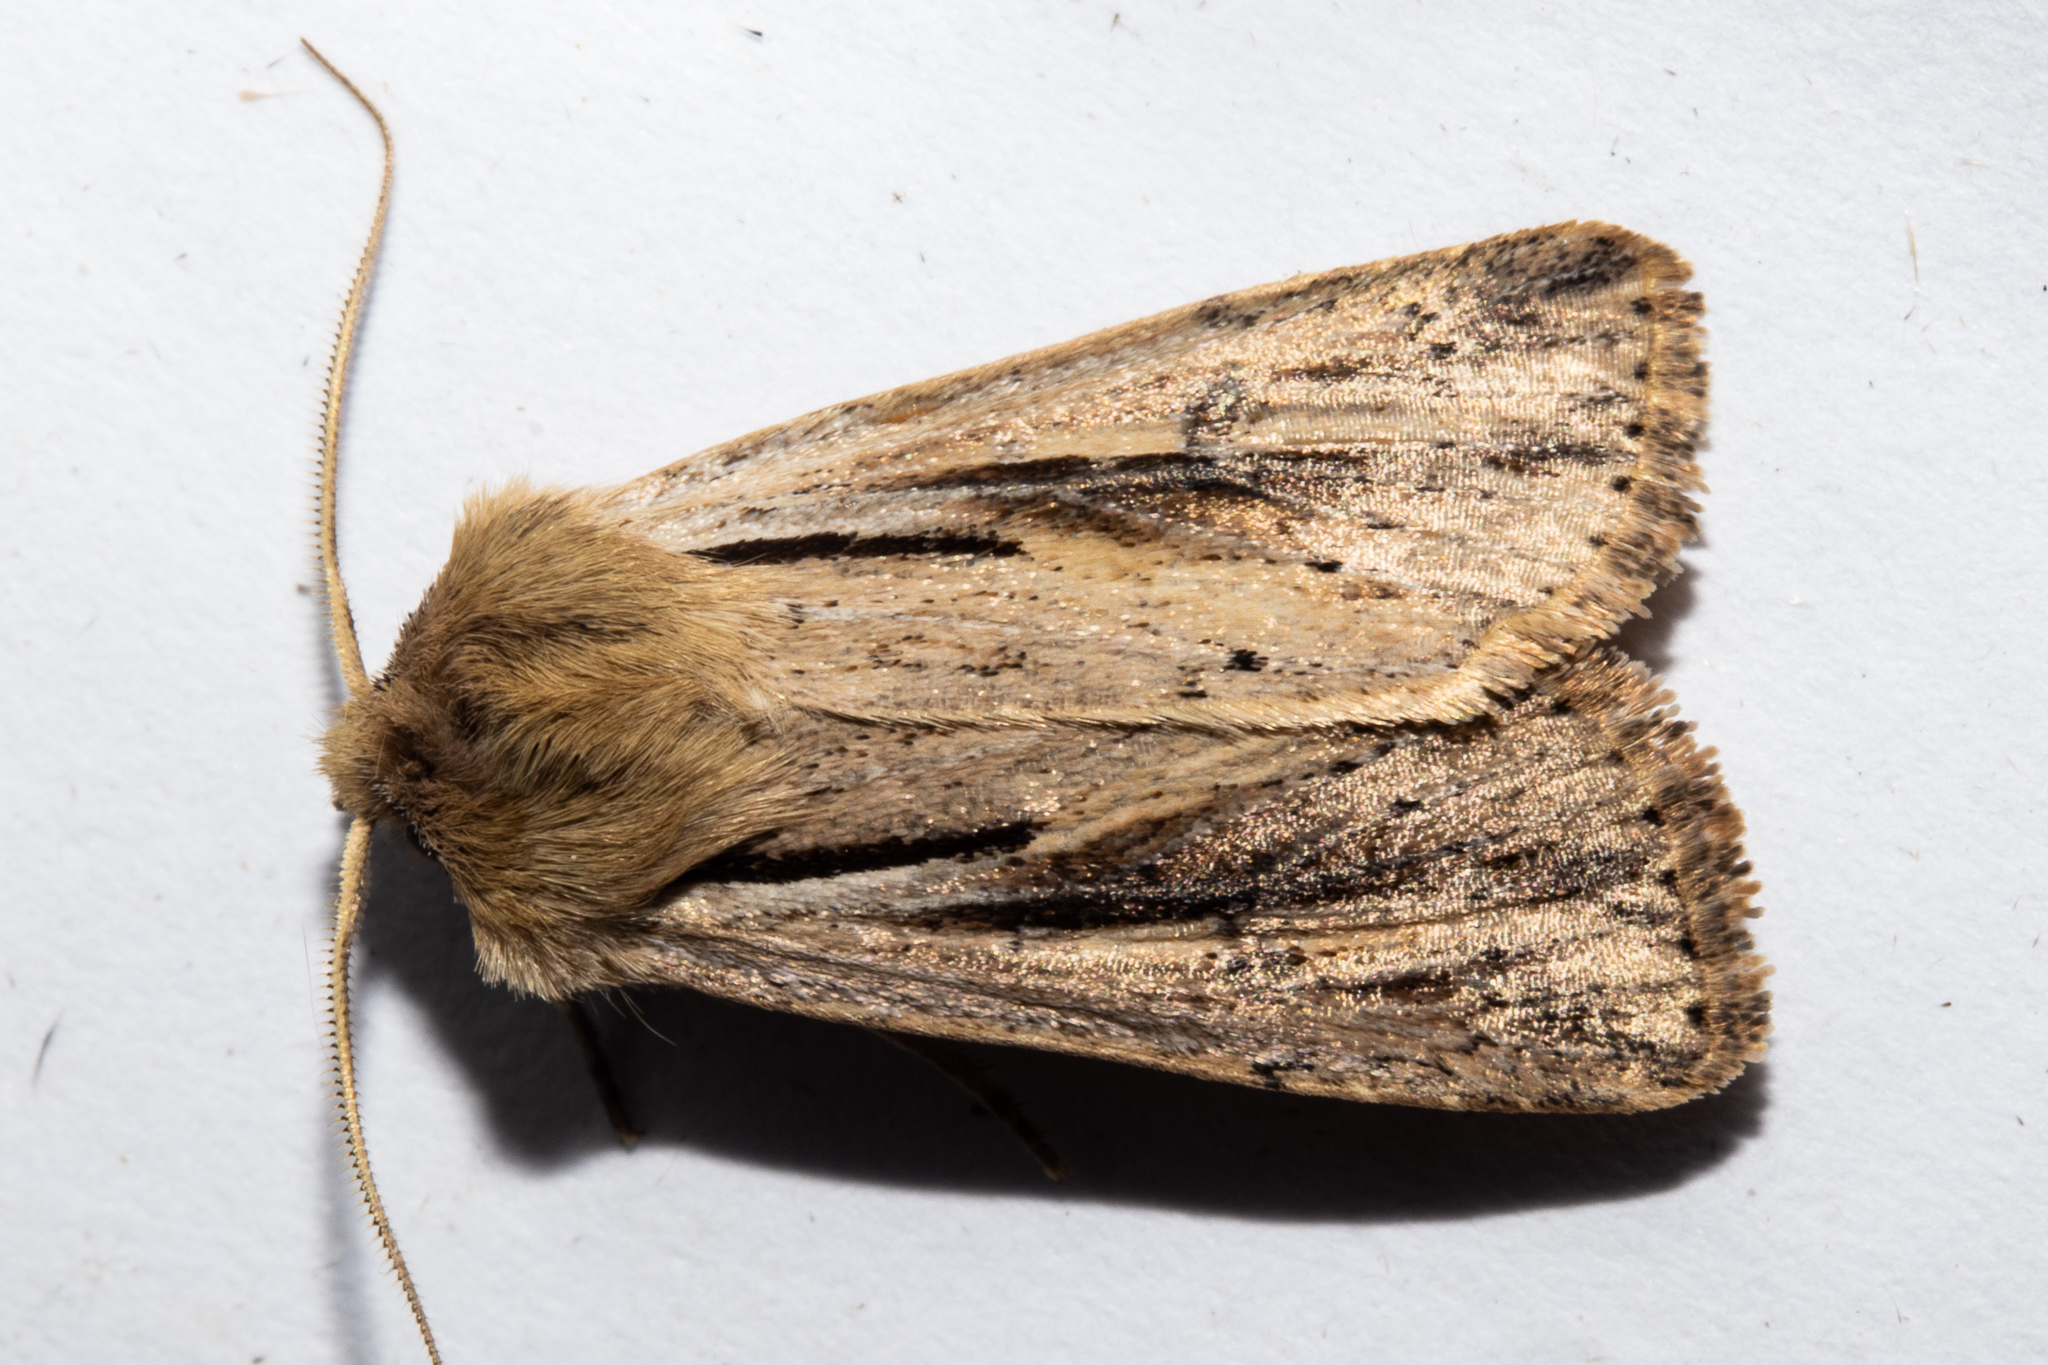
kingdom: Animalia
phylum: Arthropoda
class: Insecta
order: Lepidoptera
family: Noctuidae
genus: Ichneutica
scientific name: Ichneutica propria
